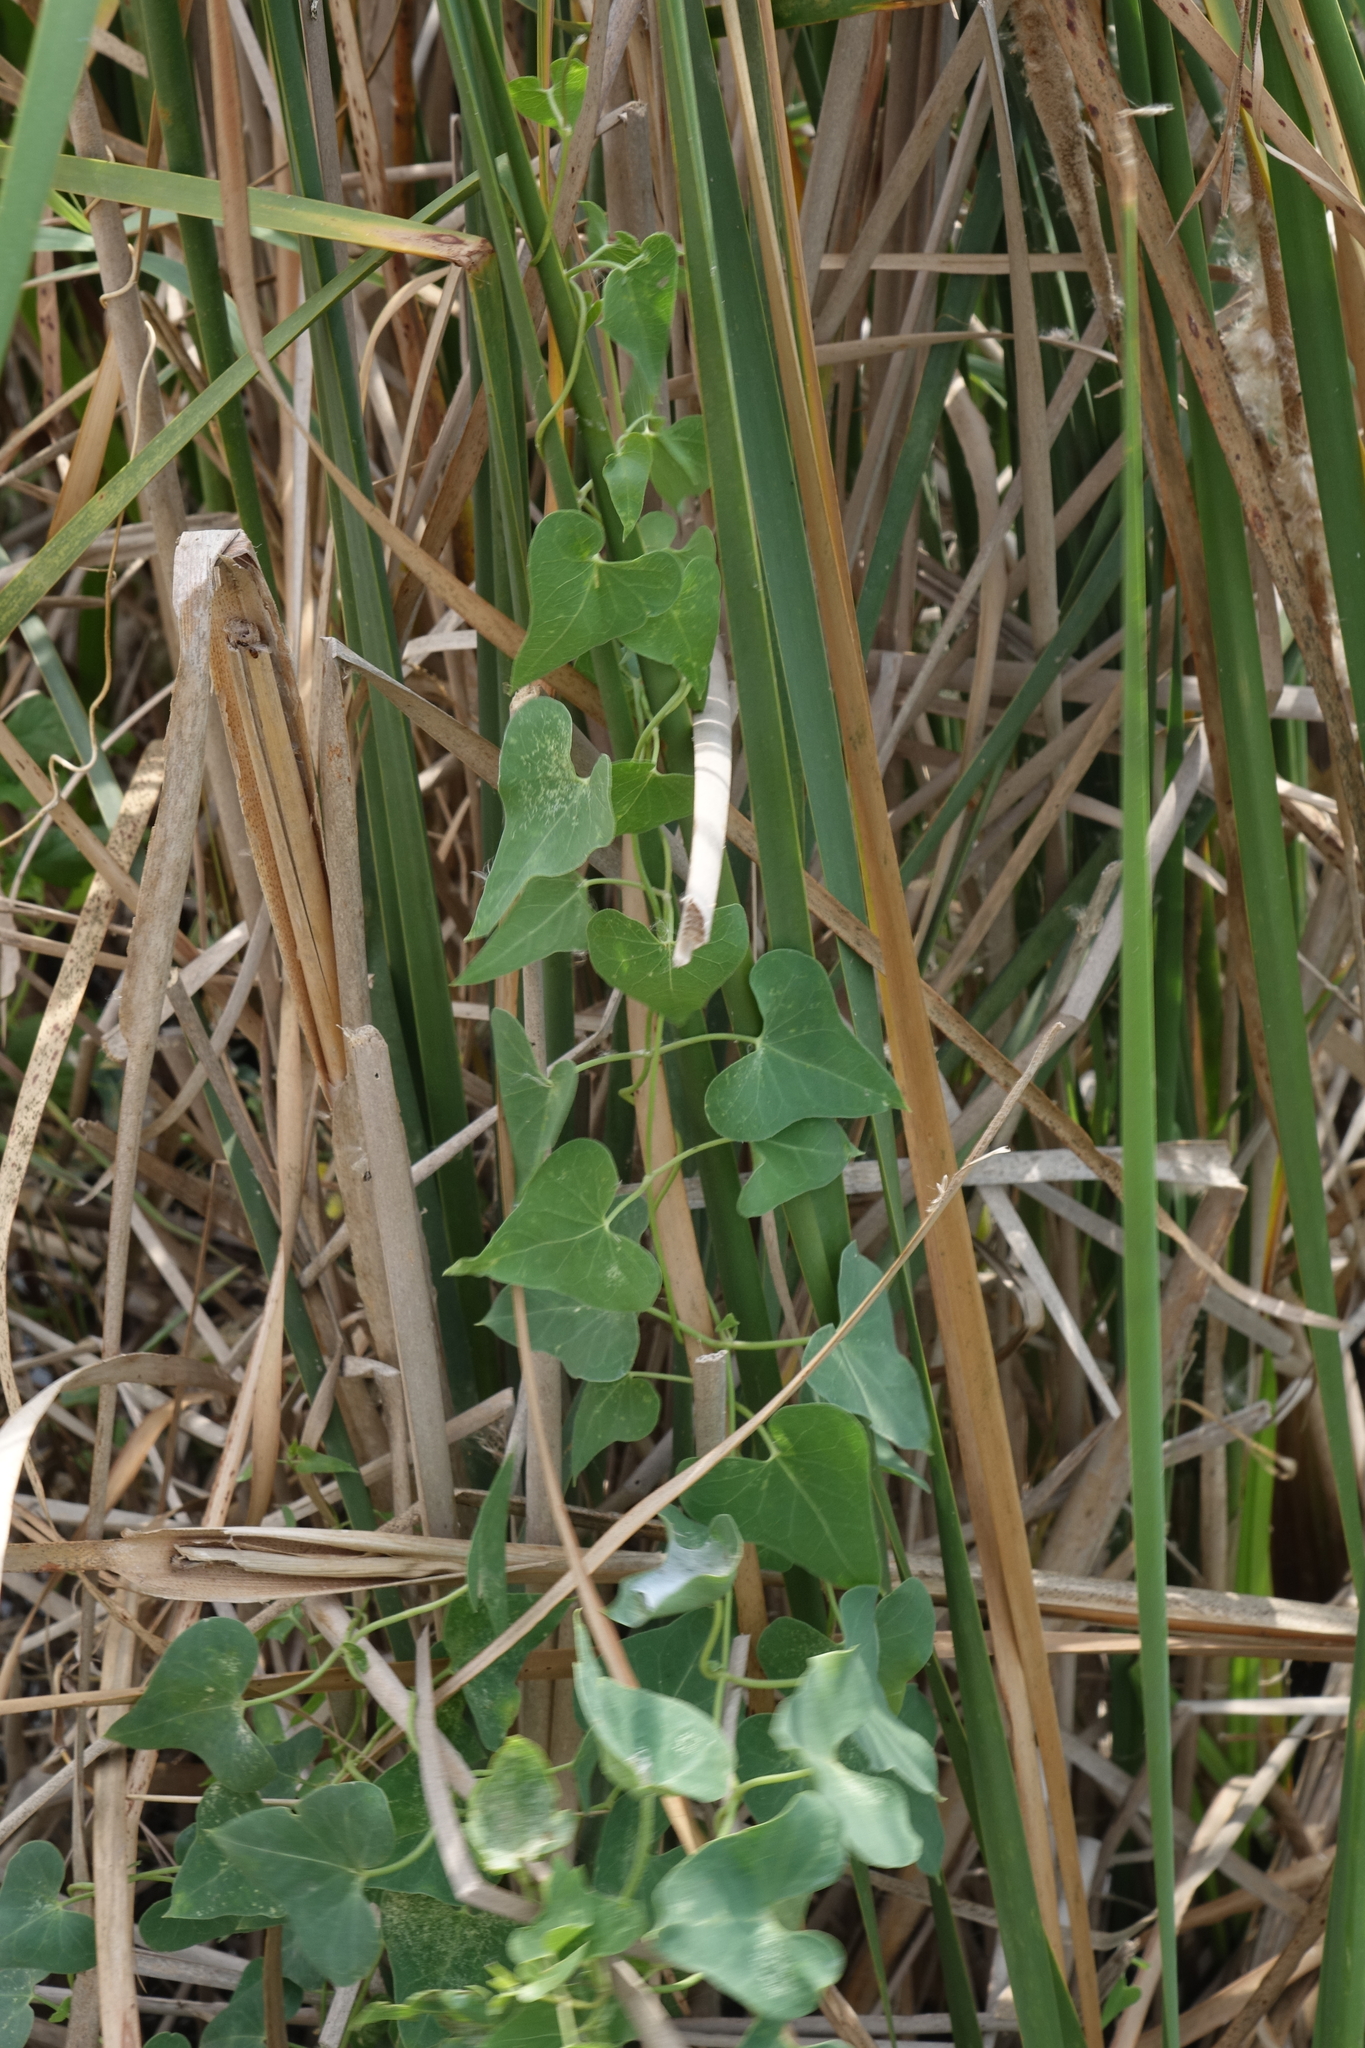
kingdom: Plantae
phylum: Tracheophyta
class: Magnoliopsida
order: Gentianales
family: Apocynaceae
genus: Cynanchum
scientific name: Cynanchum acutum
